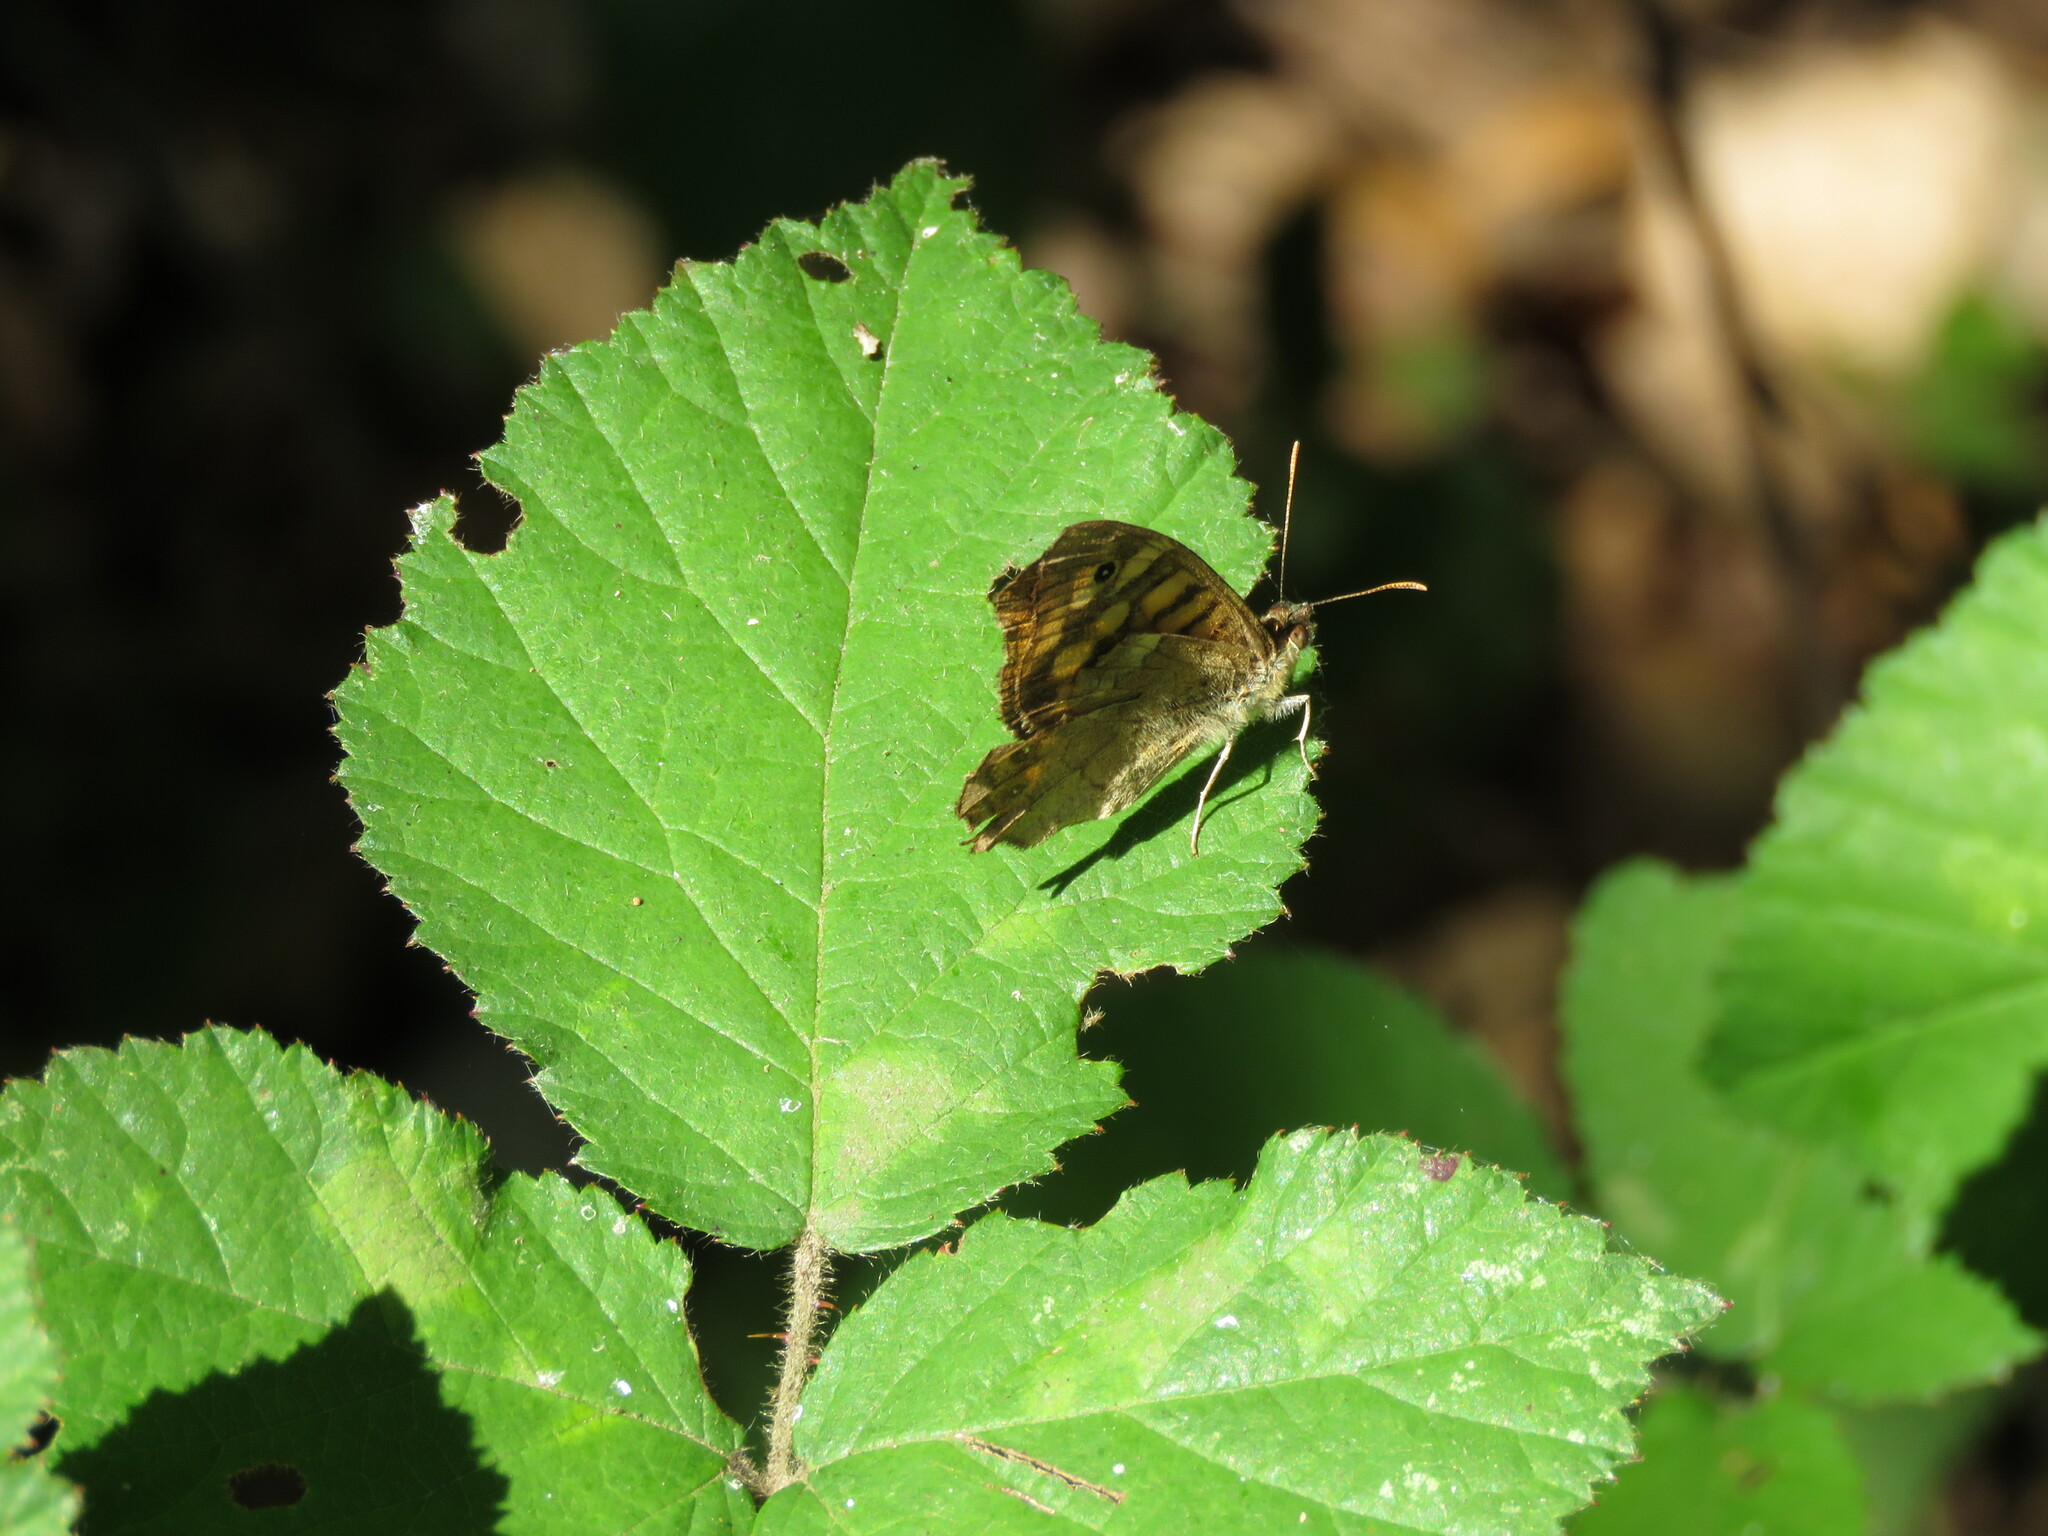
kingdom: Animalia
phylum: Arthropoda
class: Insecta
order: Lepidoptera
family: Nymphalidae
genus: Pararge
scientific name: Pararge aegeria
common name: Speckled wood
